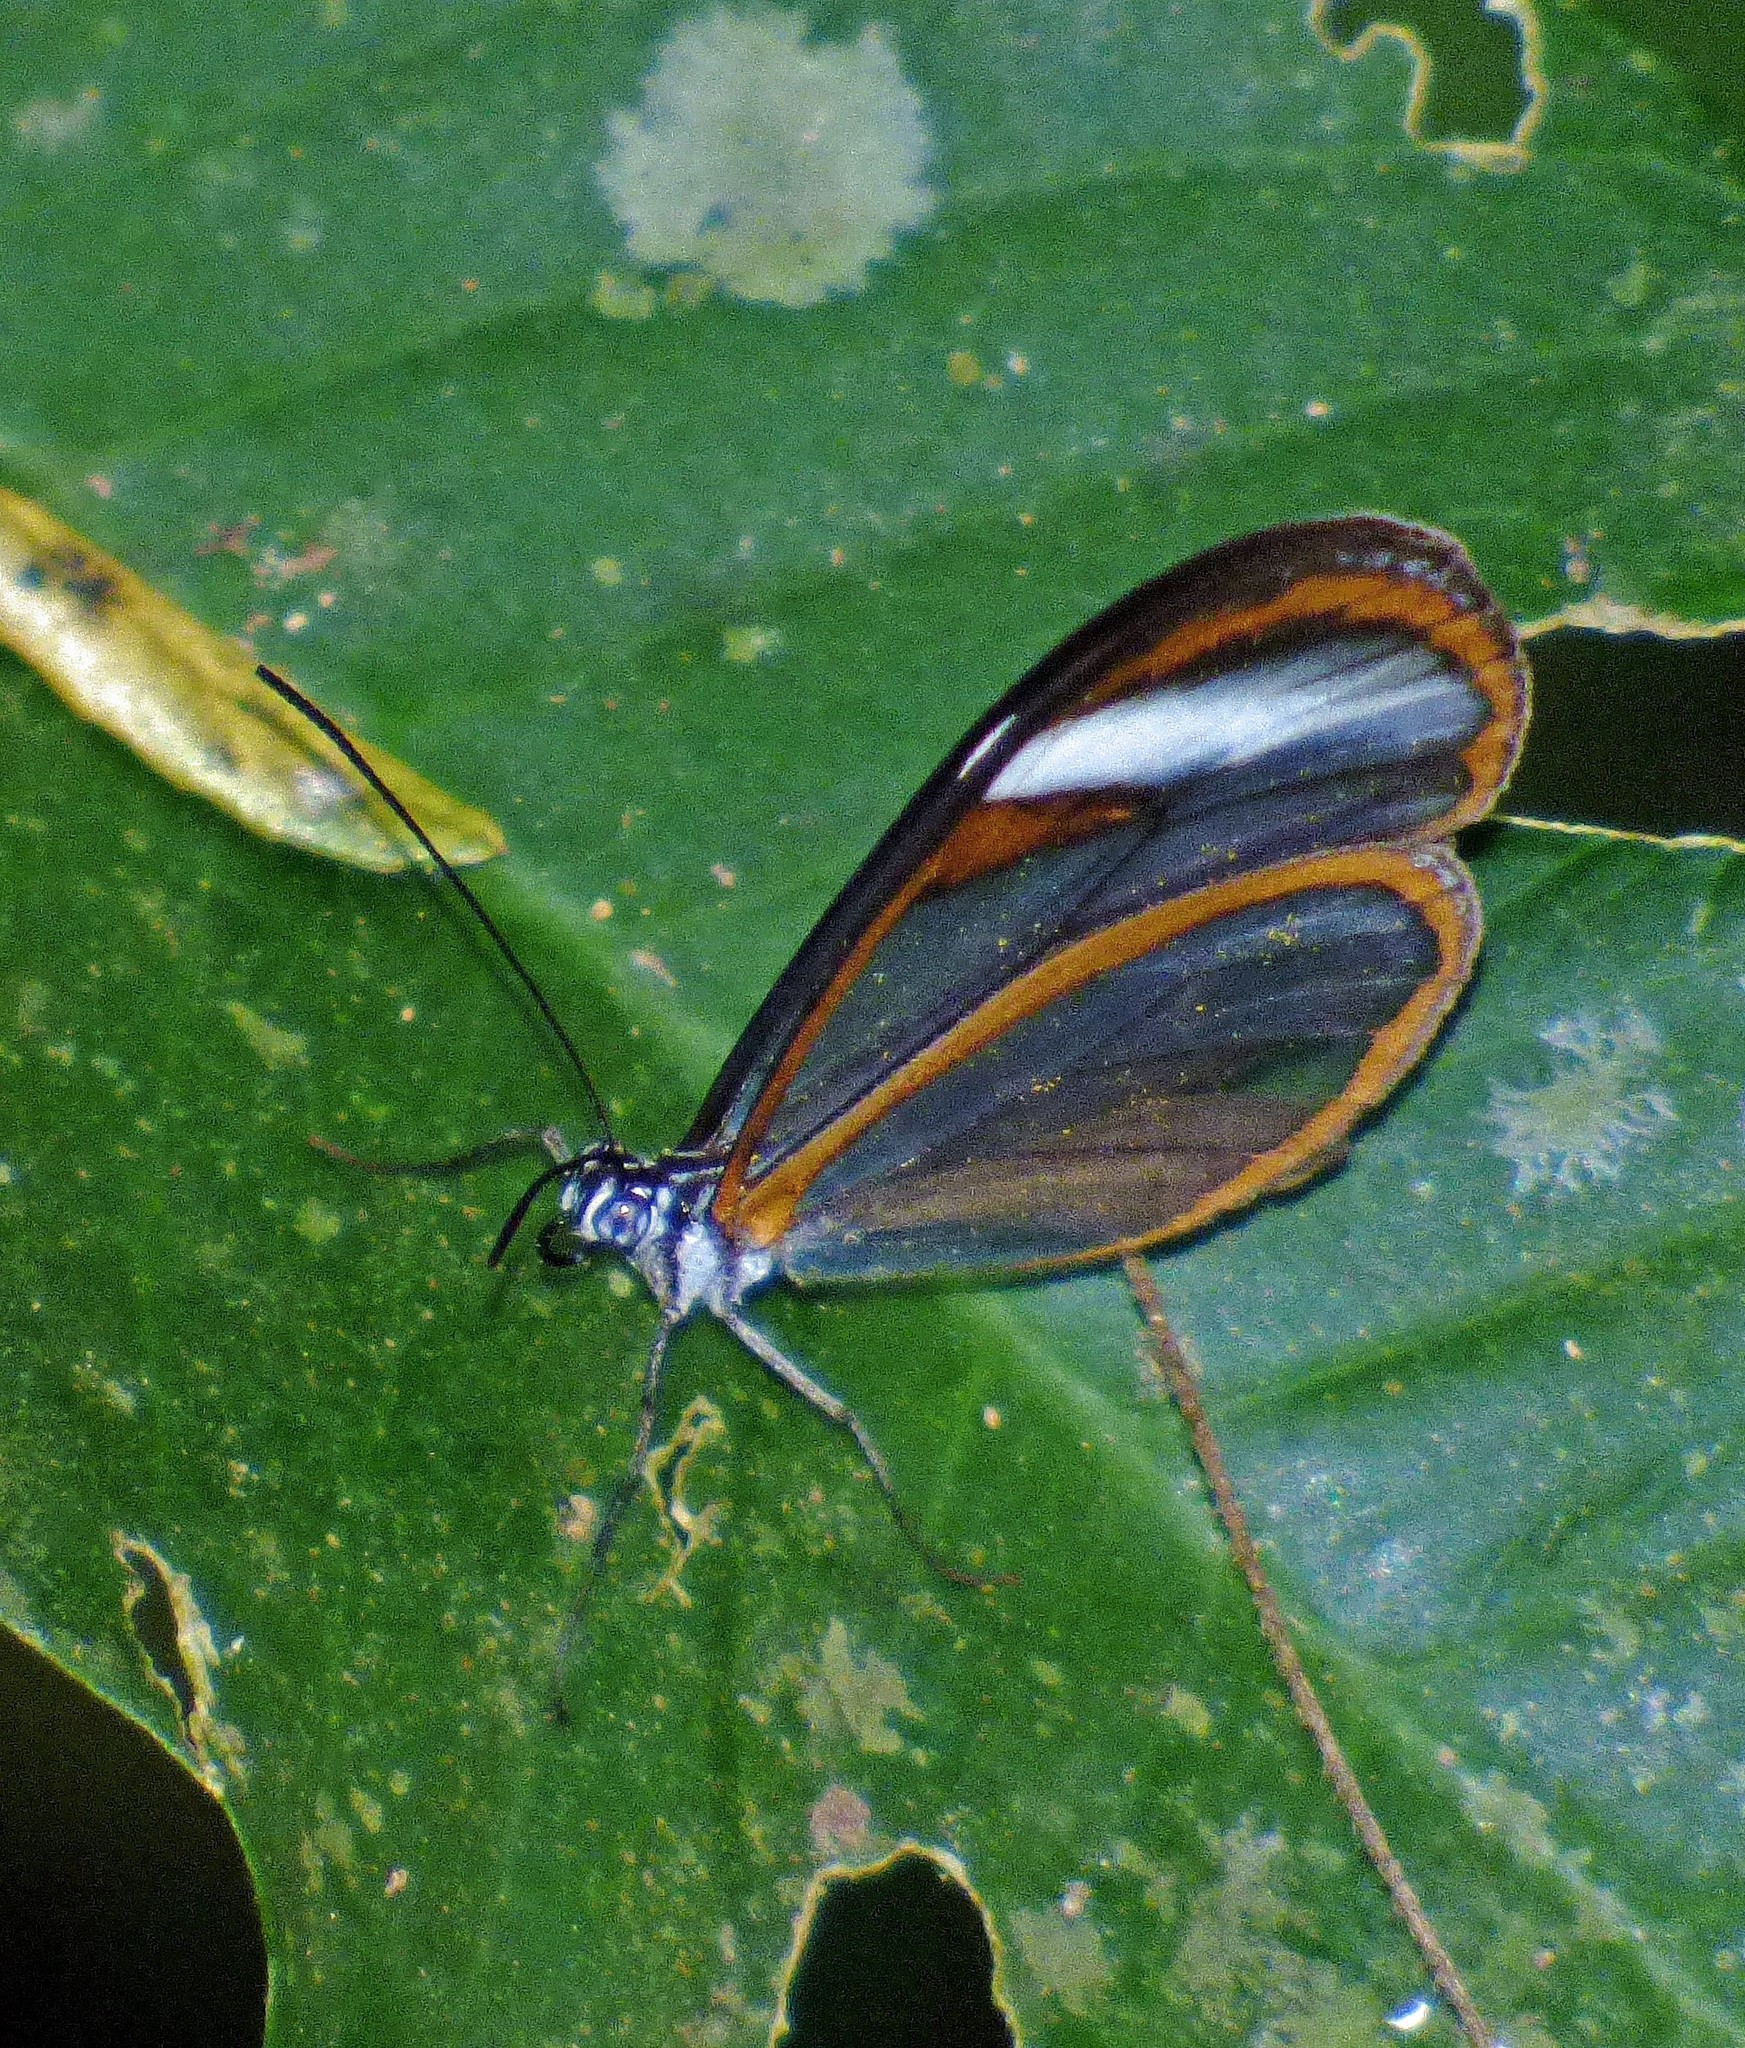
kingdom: Animalia
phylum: Arthropoda
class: Insecta
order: Lepidoptera
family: Nymphalidae
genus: Brevioleria
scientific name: Brevioleria seba
